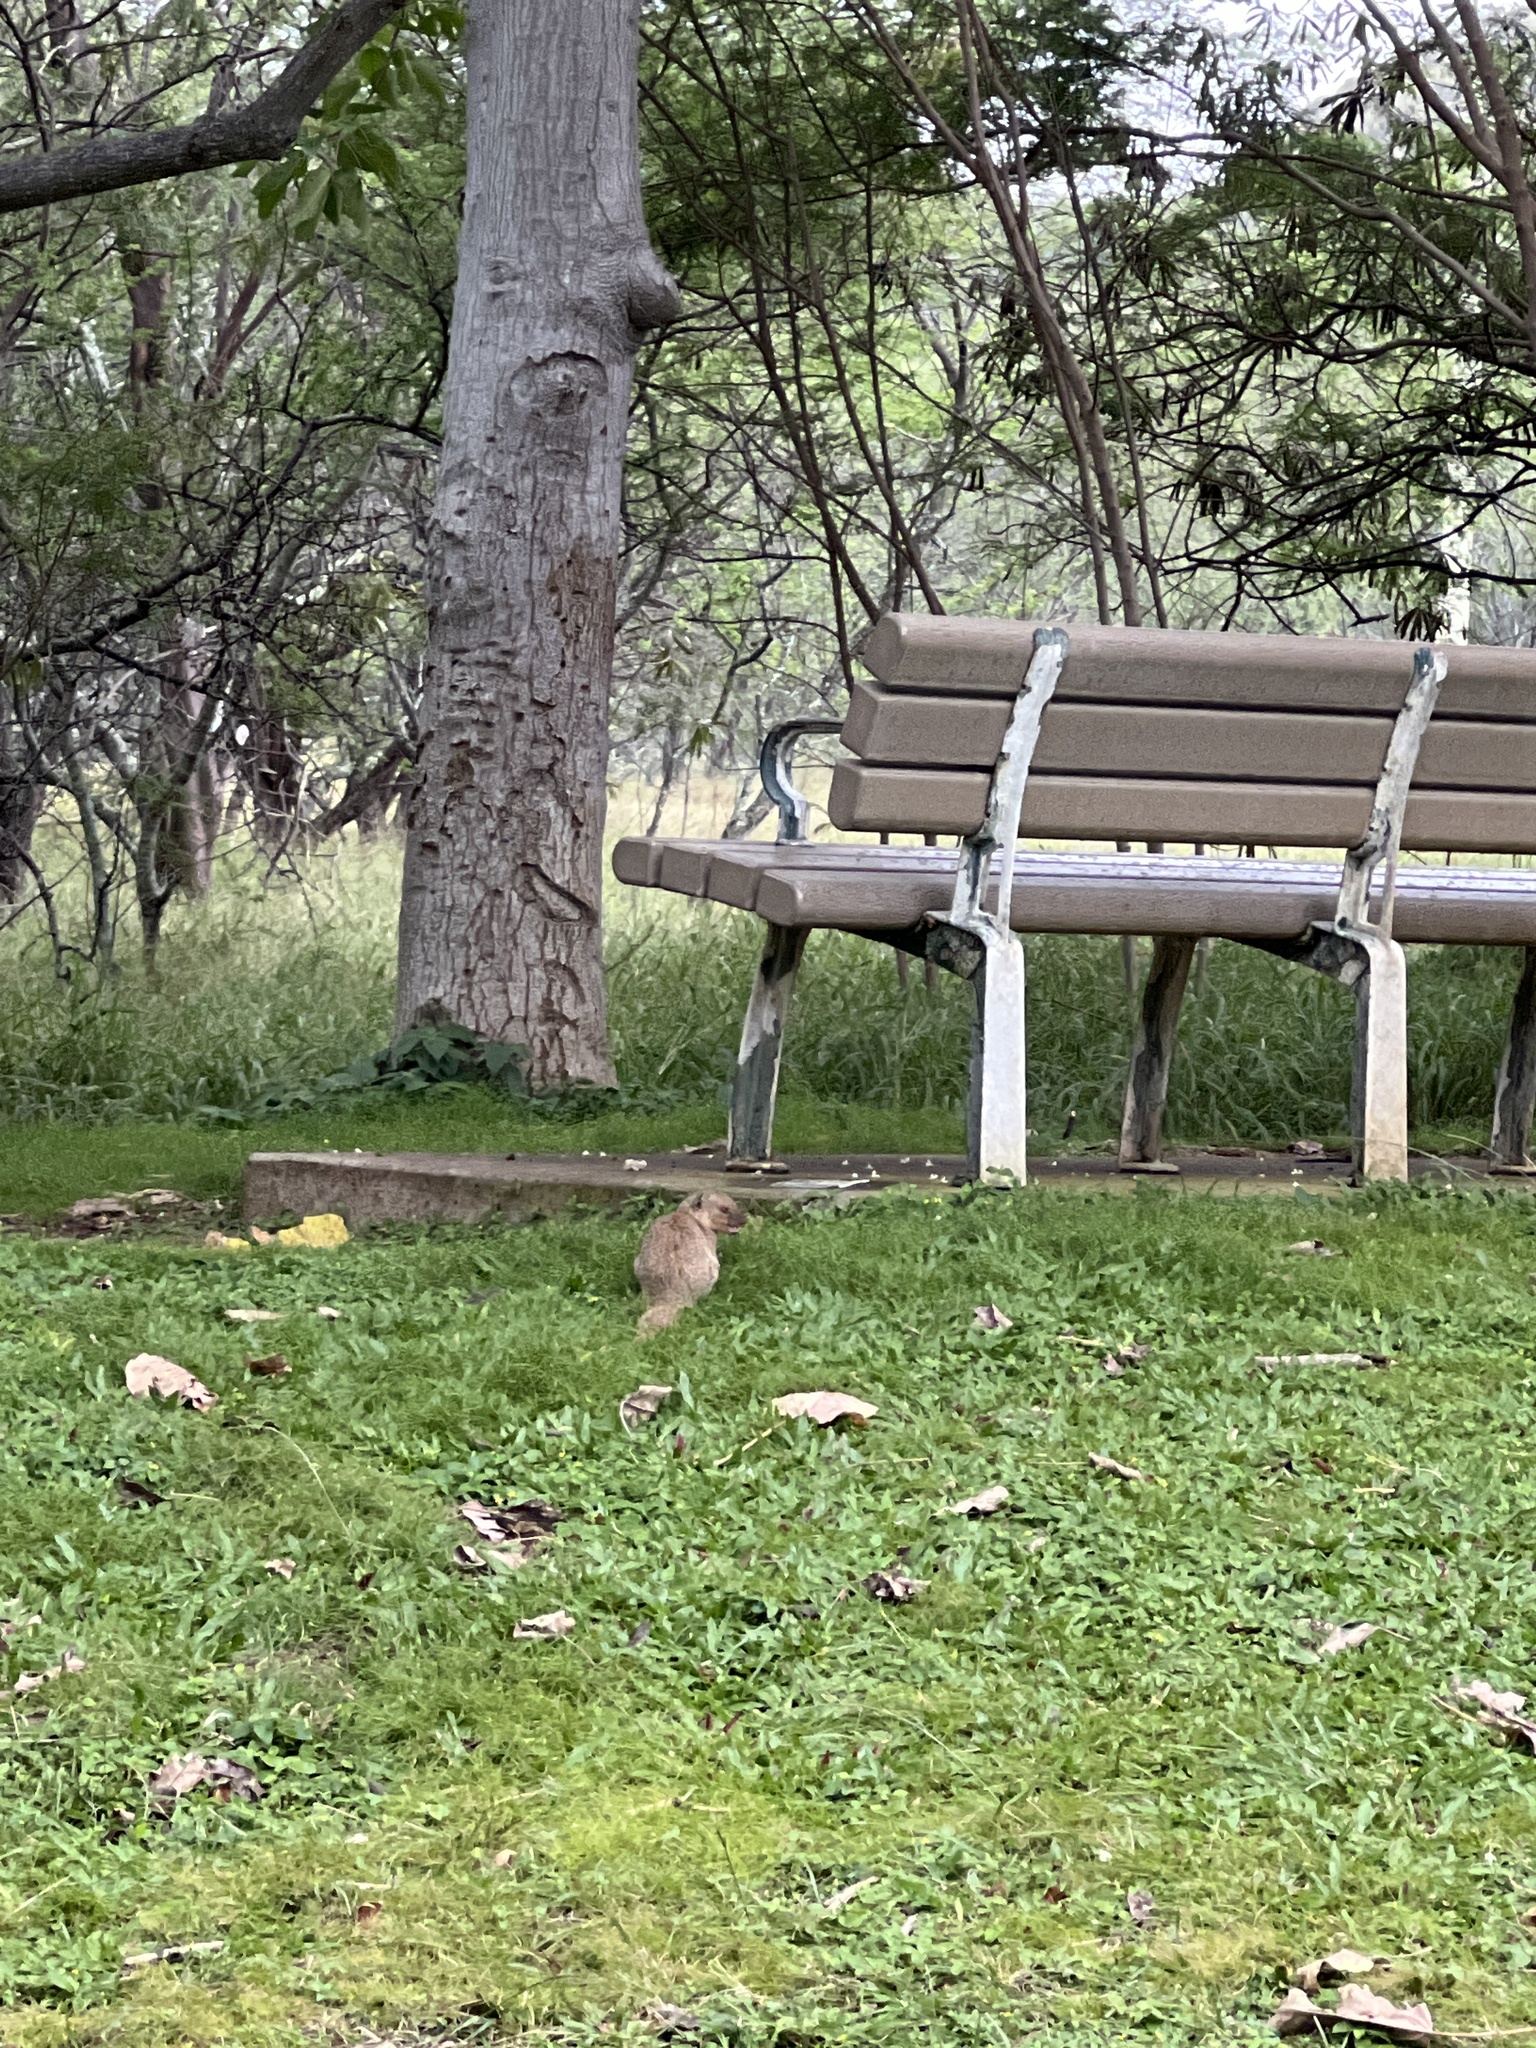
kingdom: Animalia
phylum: Chordata
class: Mammalia
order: Carnivora
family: Herpestidae
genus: Herpestes
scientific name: Herpestes javanicus
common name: Small asian mongoose
